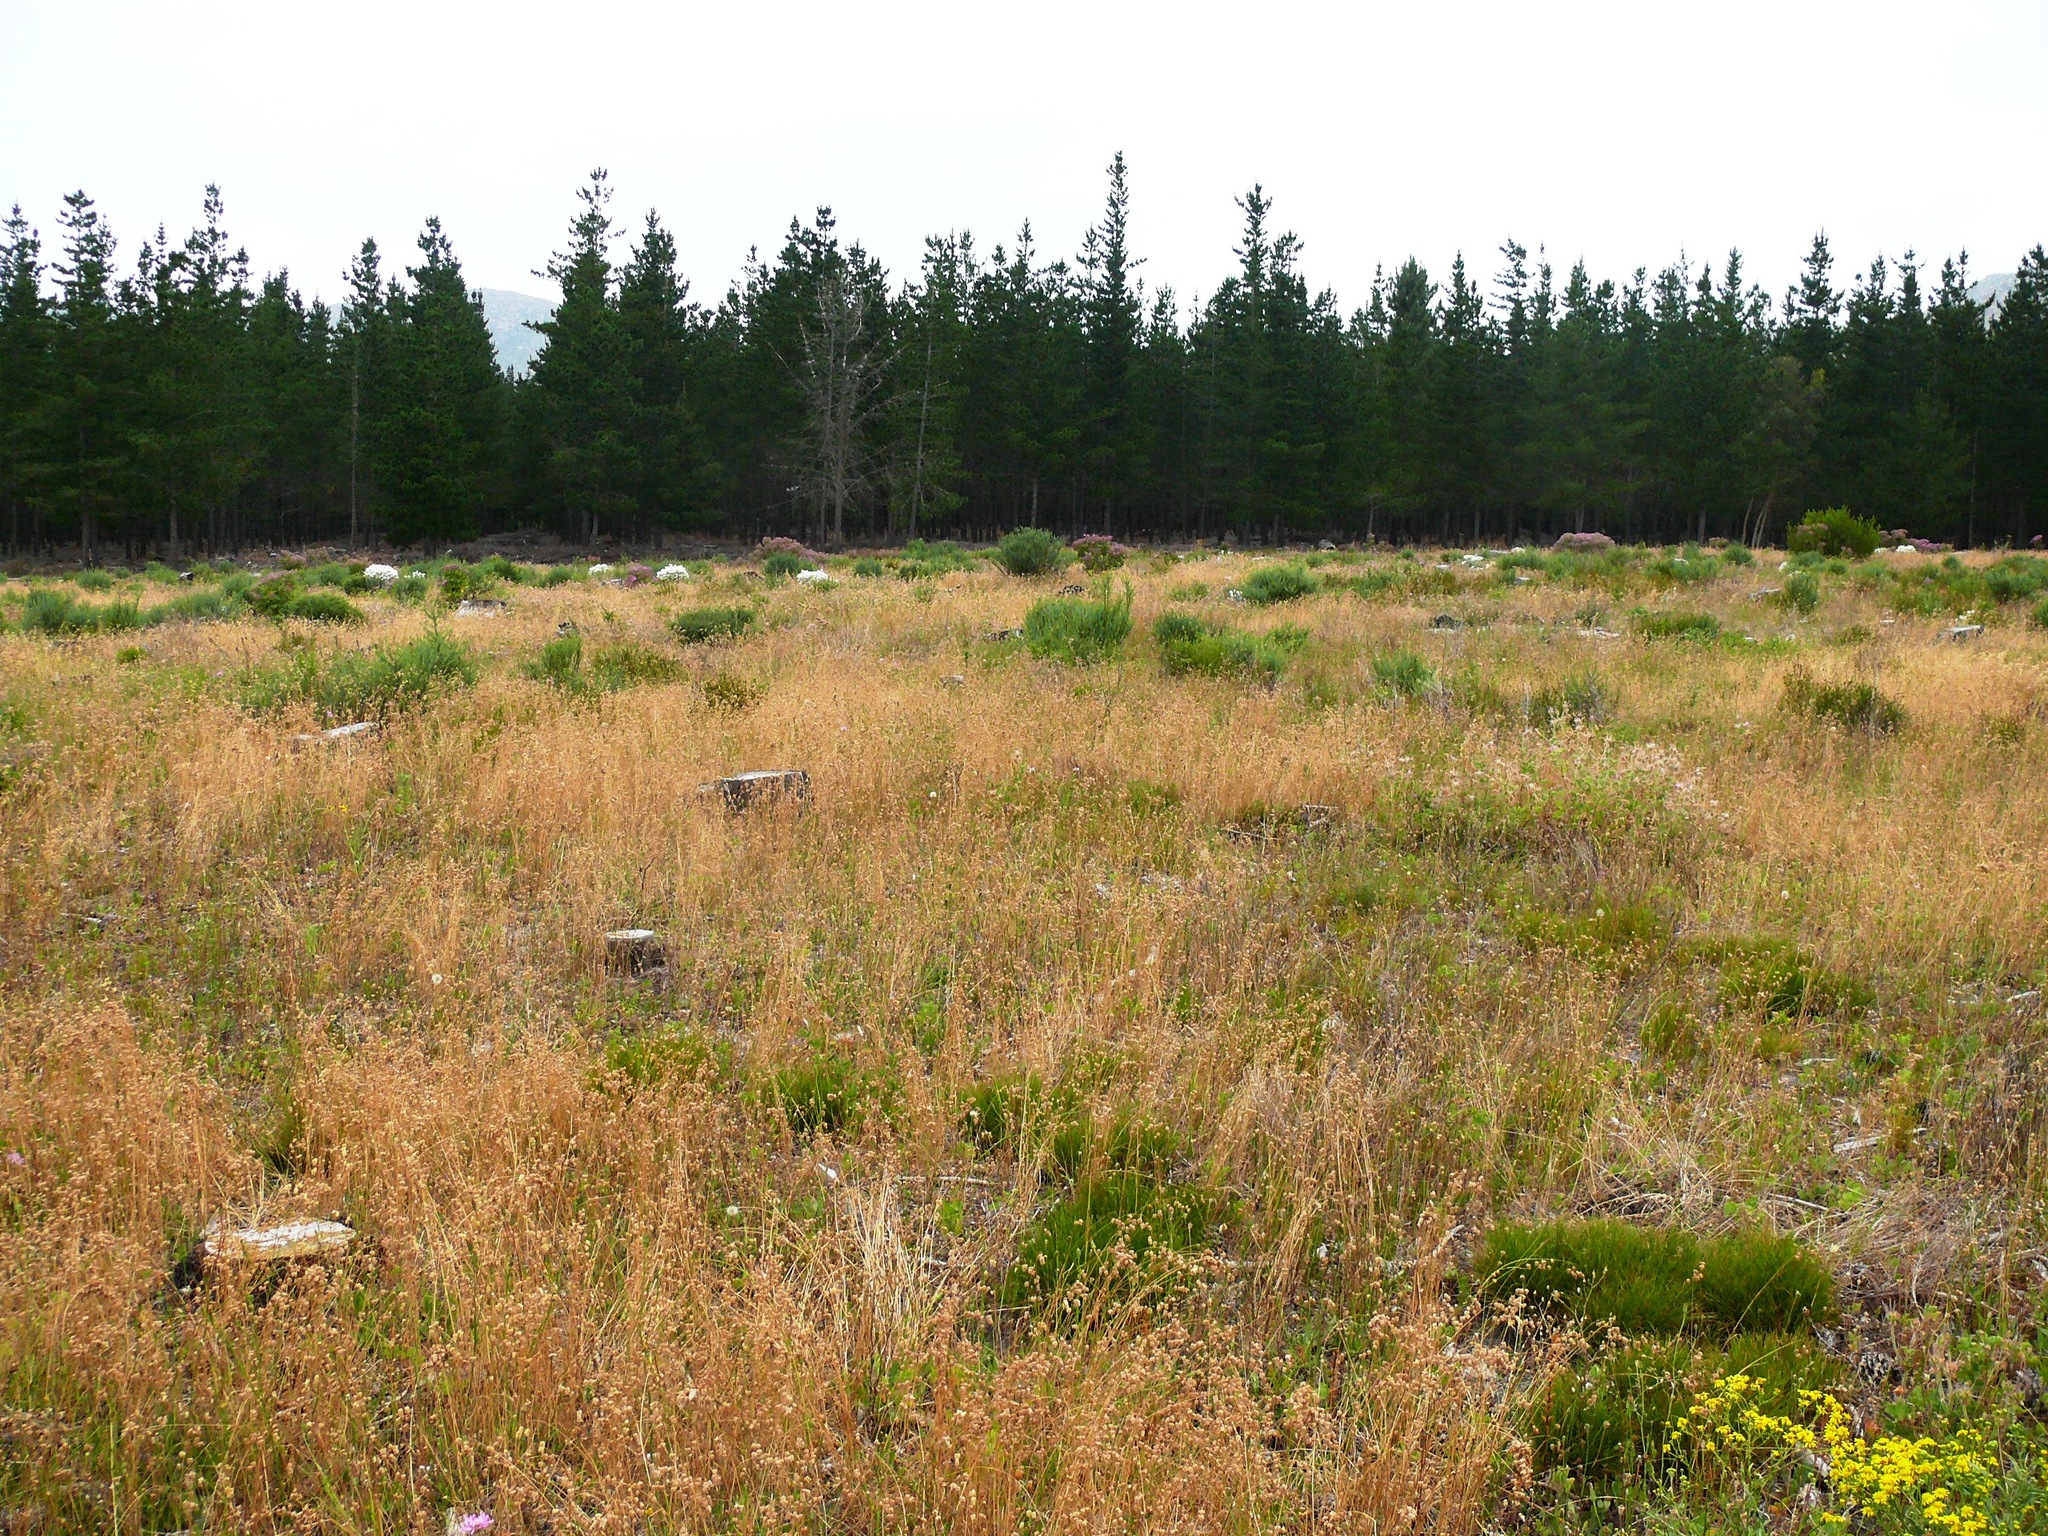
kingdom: Plantae
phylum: Tracheophyta
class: Liliopsida
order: Poales
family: Poaceae
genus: Briza
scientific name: Briza maxima
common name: Big quakinggrass
